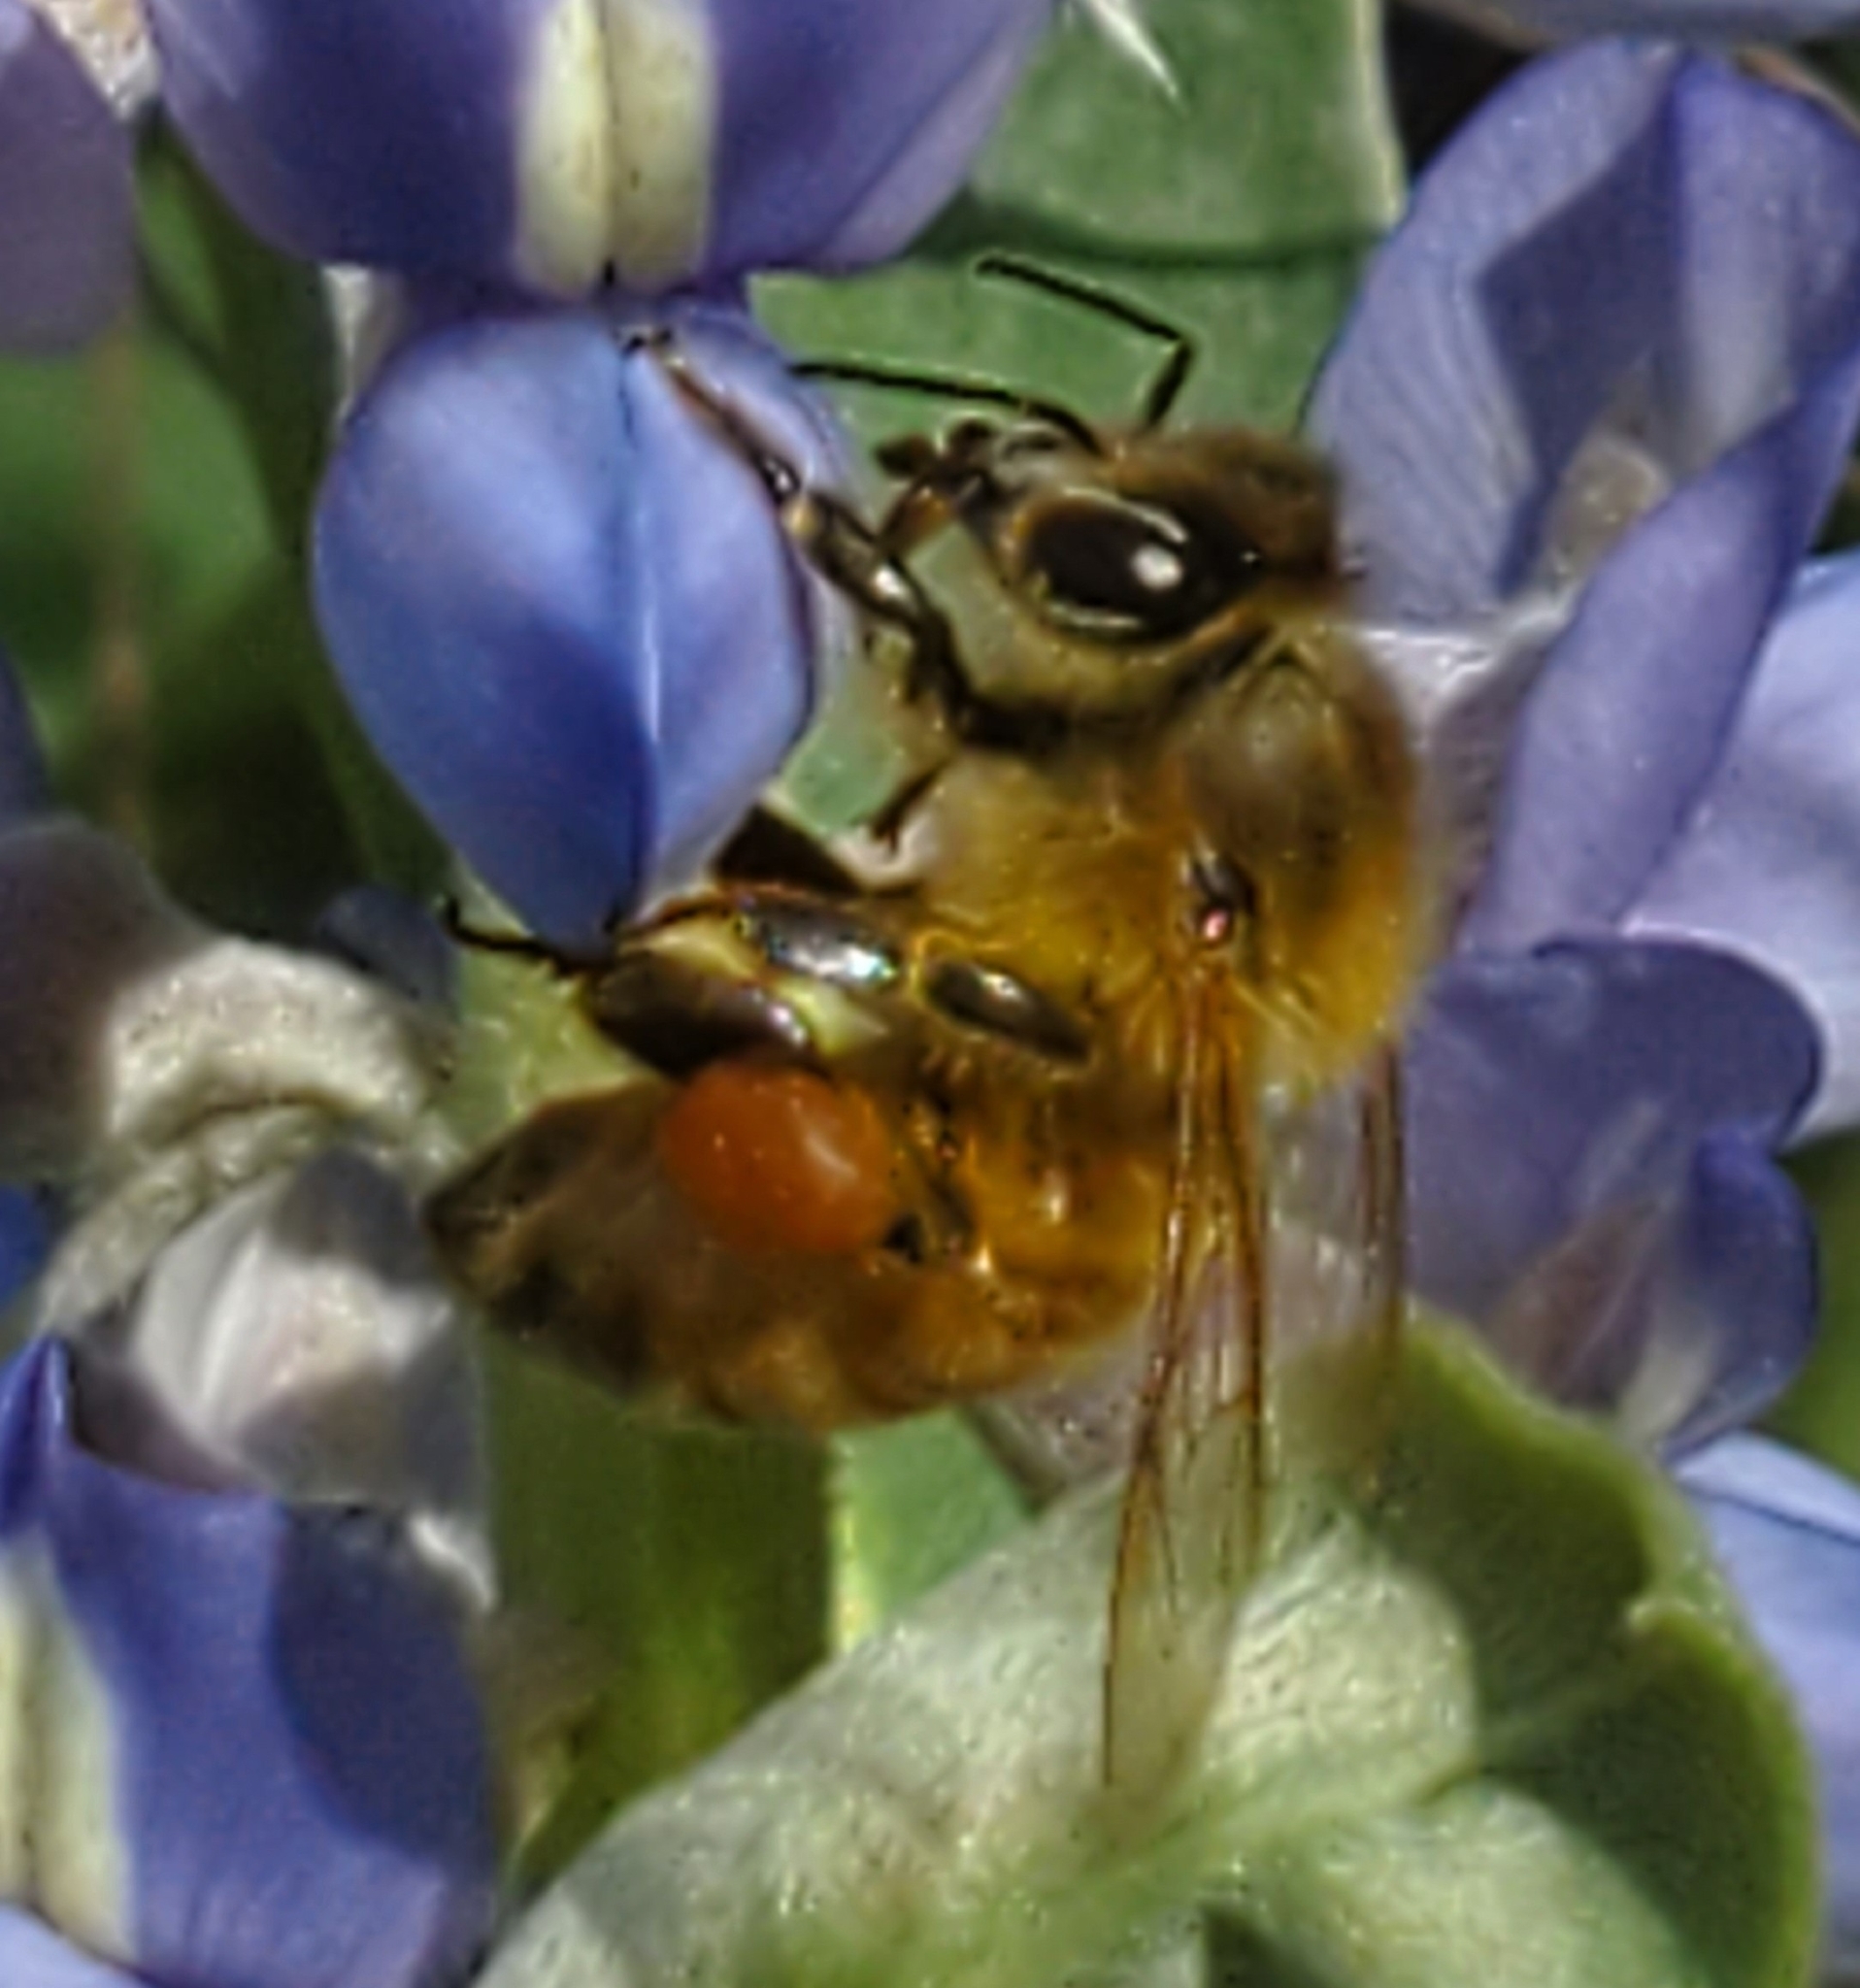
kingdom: Animalia
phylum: Arthropoda
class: Insecta
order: Hymenoptera
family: Apidae
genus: Apis
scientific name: Apis mellifera
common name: Honey bee
